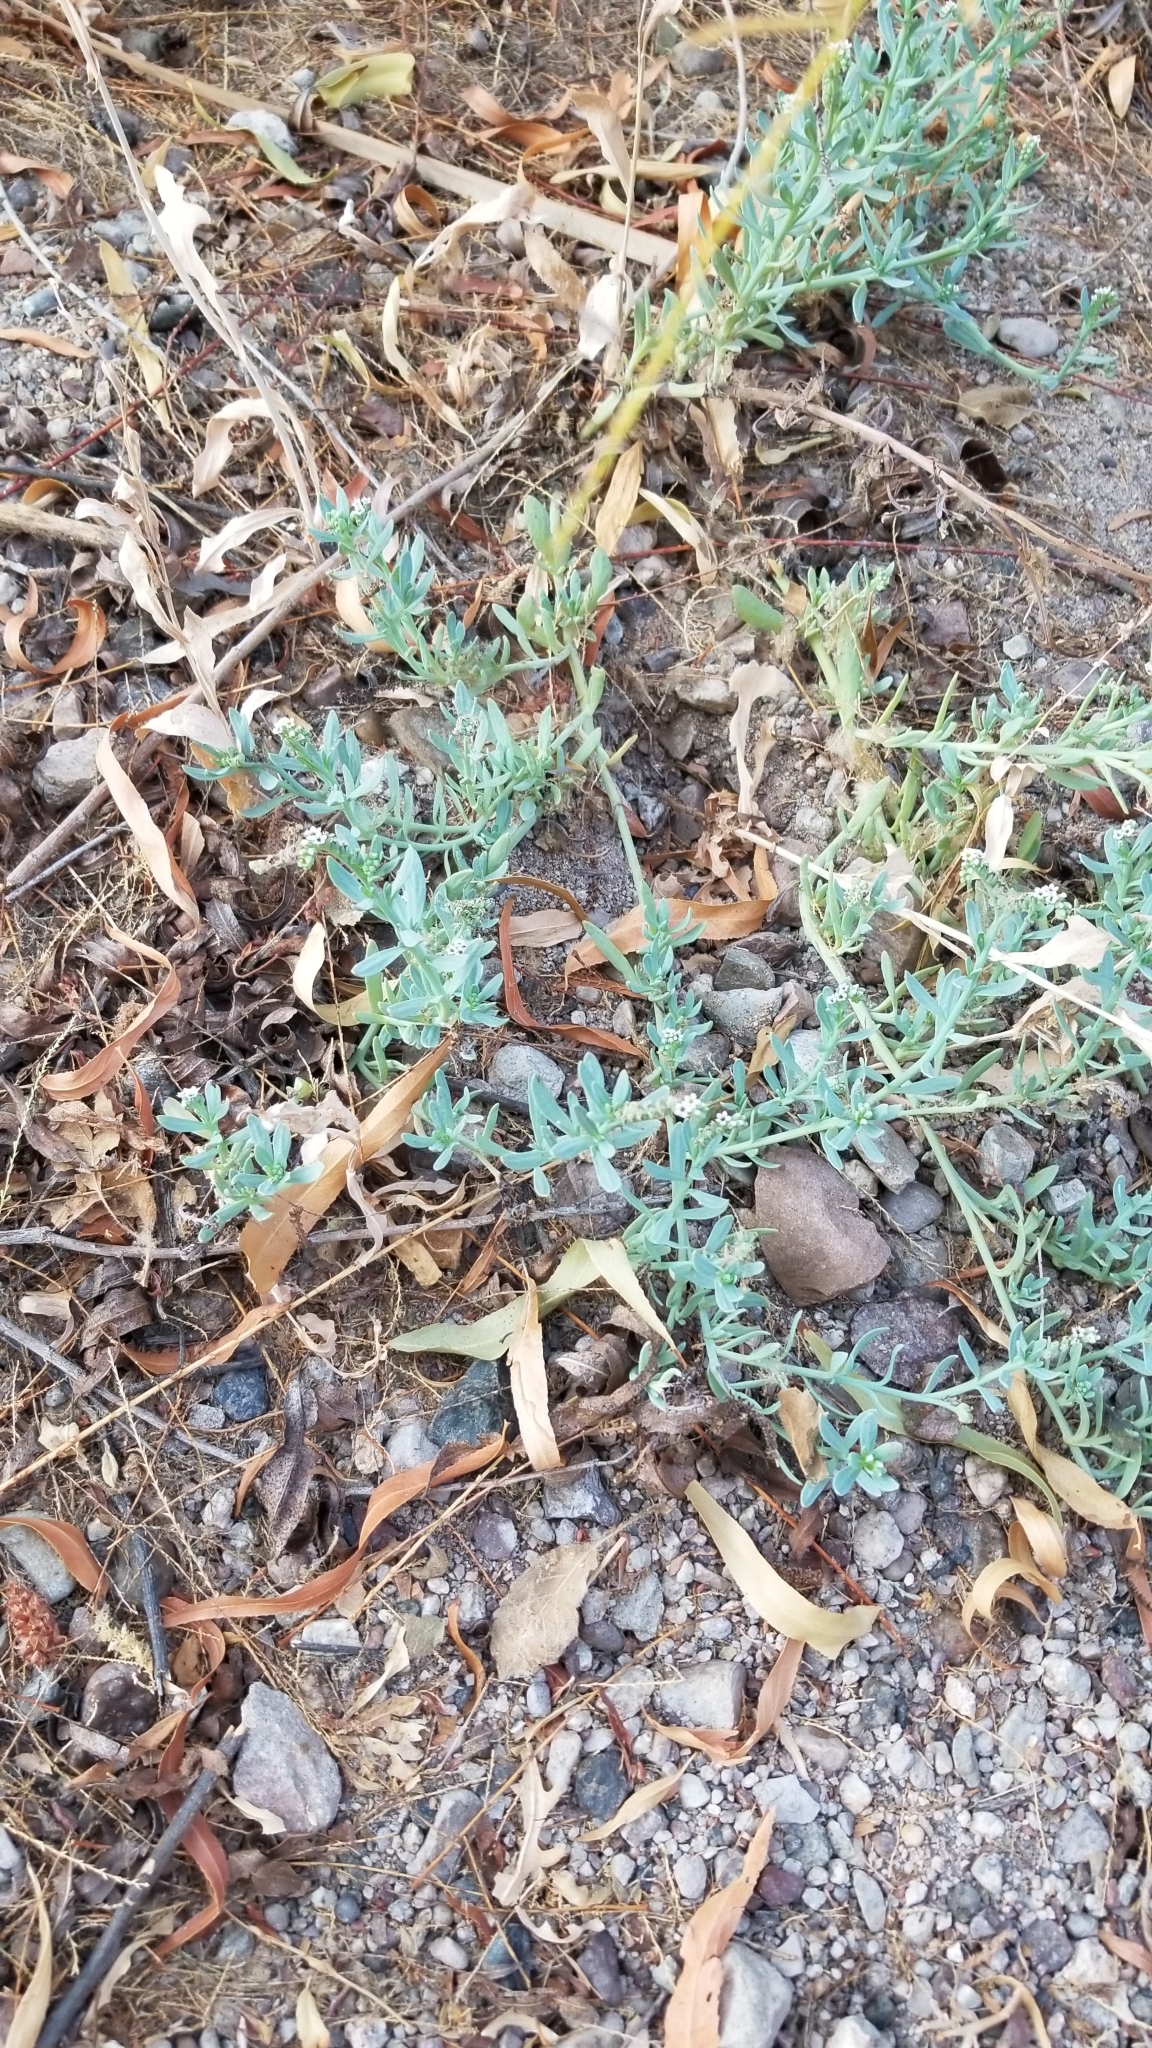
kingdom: Plantae
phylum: Tracheophyta
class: Magnoliopsida
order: Boraginales
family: Heliotropiaceae
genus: Heliotropium
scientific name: Heliotropium curassavicum
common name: Seaside heliotrope
